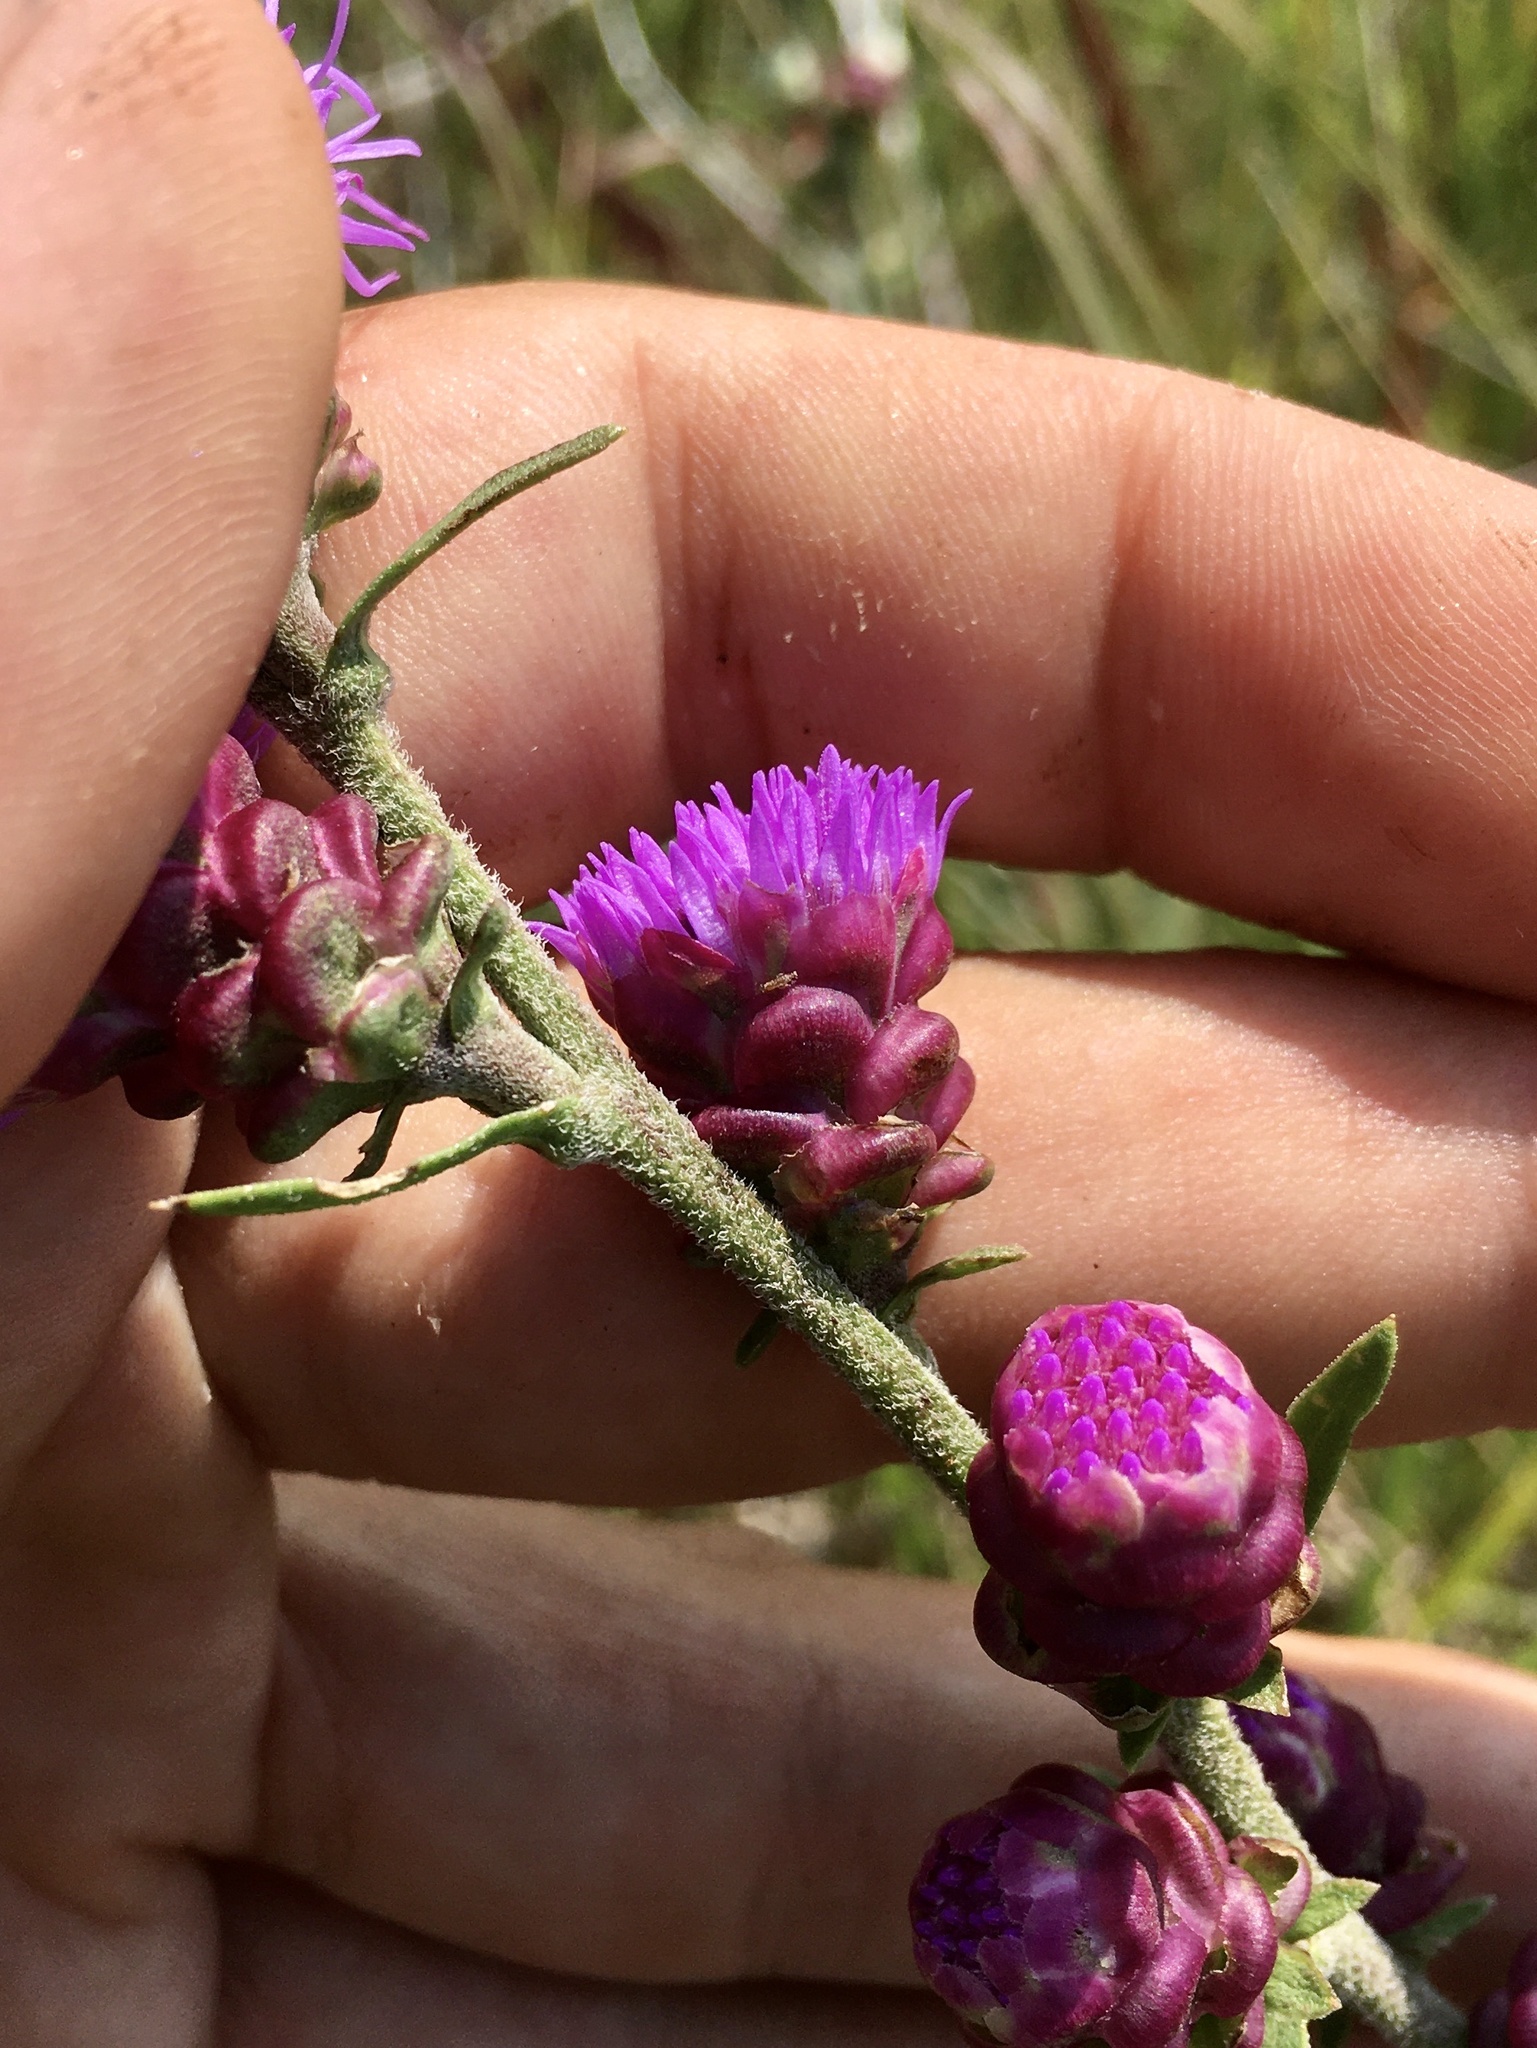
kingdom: Plantae
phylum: Tracheophyta
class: Magnoliopsida
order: Asterales
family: Asteraceae
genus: Liatris
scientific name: Liatris aspera
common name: Lacerate blazing-star
